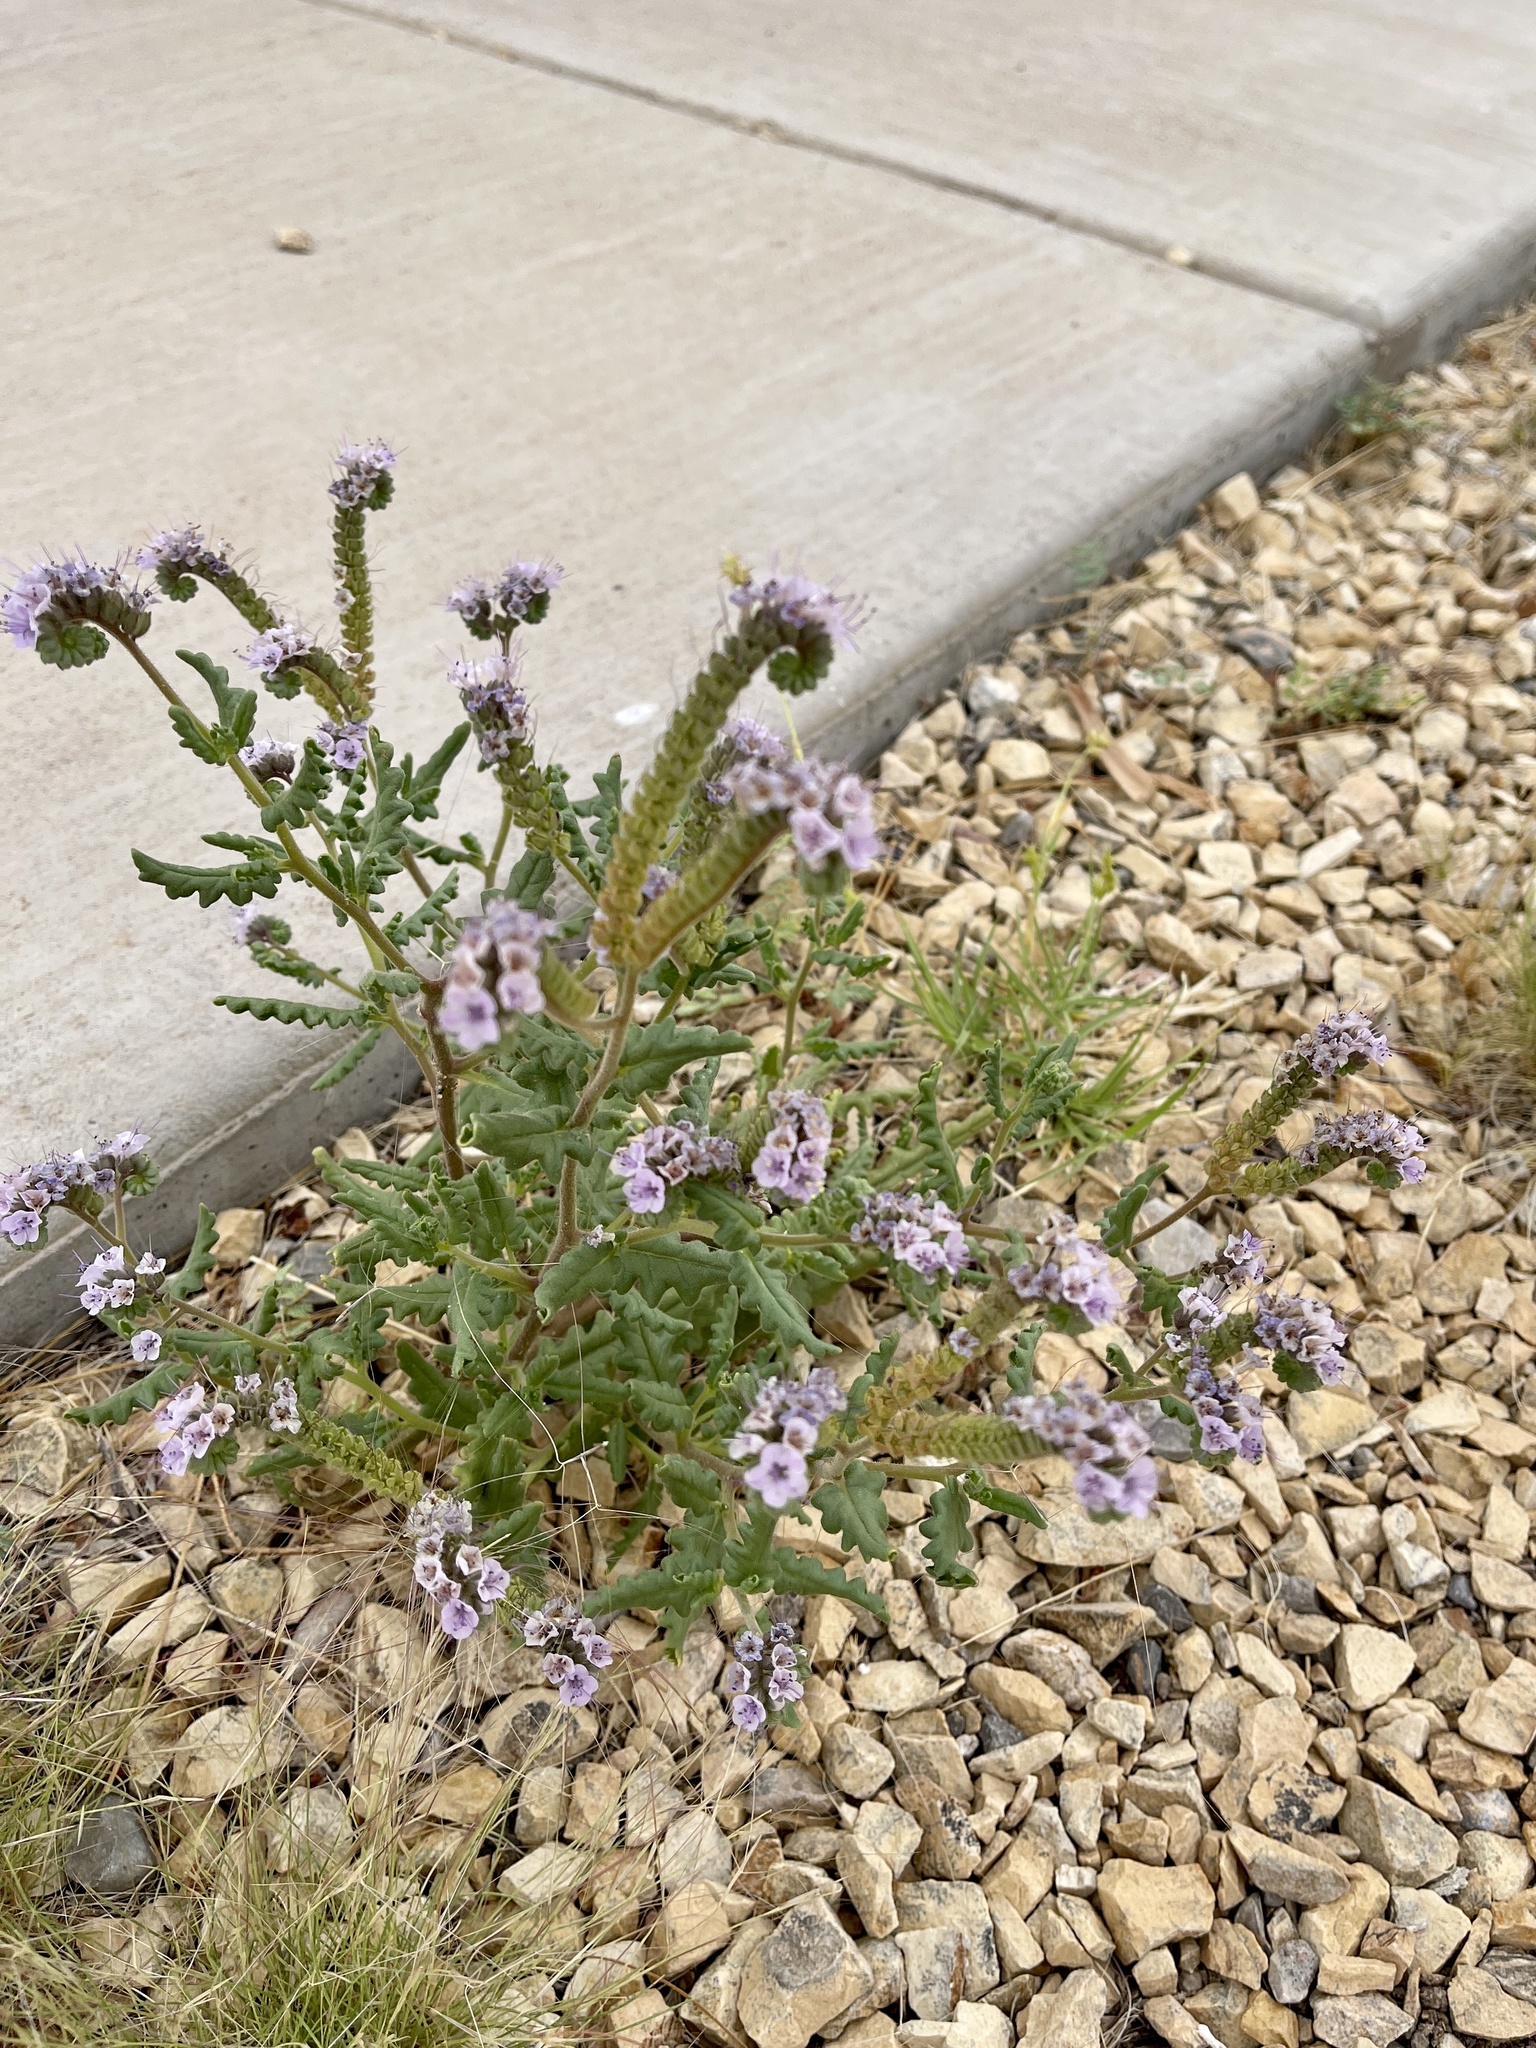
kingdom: Plantae
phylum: Tracheophyta
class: Magnoliopsida
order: Boraginales
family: Hydrophyllaceae
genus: Phacelia
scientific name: Phacelia integrifolia
